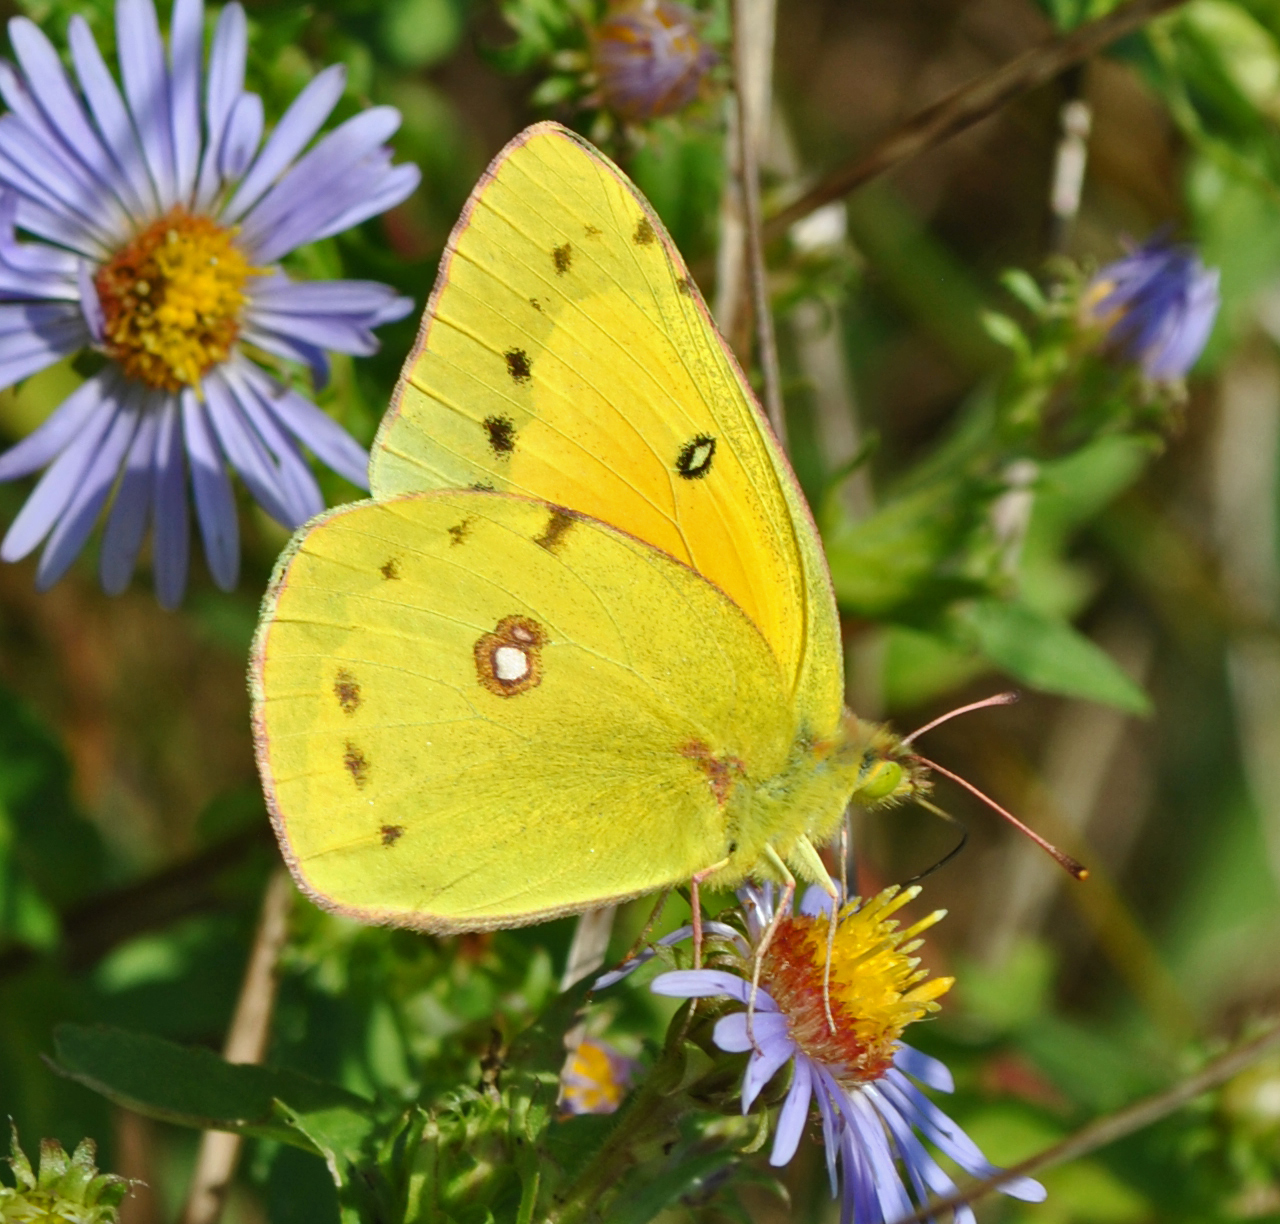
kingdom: Animalia
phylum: Arthropoda
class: Insecta
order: Lepidoptera
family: Pieridae
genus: Colias
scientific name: Colias eurytheme
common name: Alfalfa butterfly
